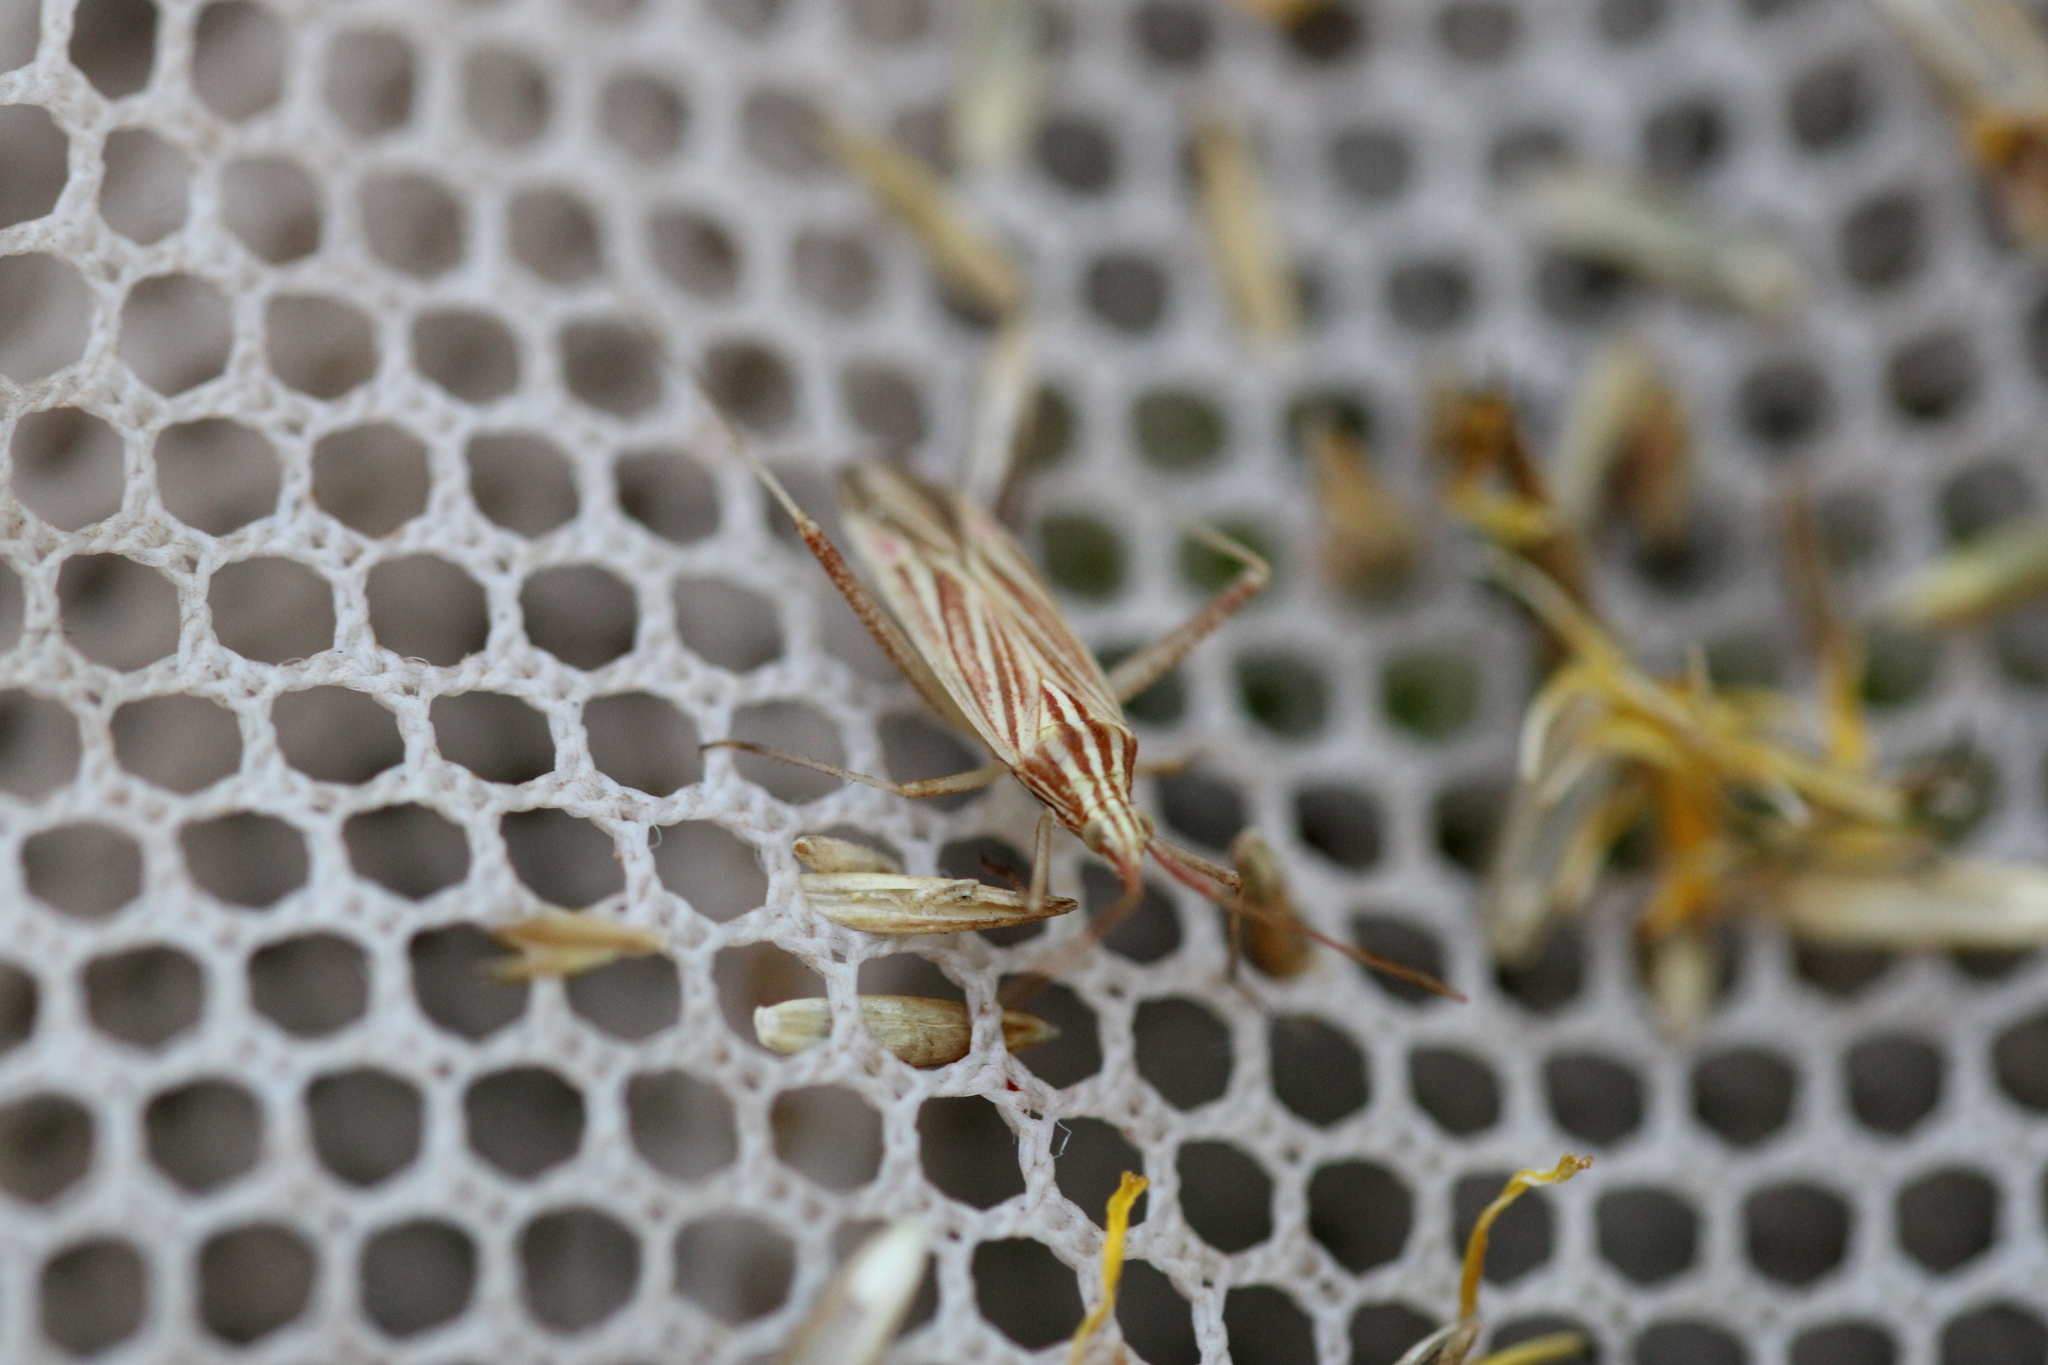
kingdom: Animalia
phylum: Arthropoda
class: Insecta
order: Hemiptera
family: Miridae
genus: Miridius
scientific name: Miridius quadrivirgatus
